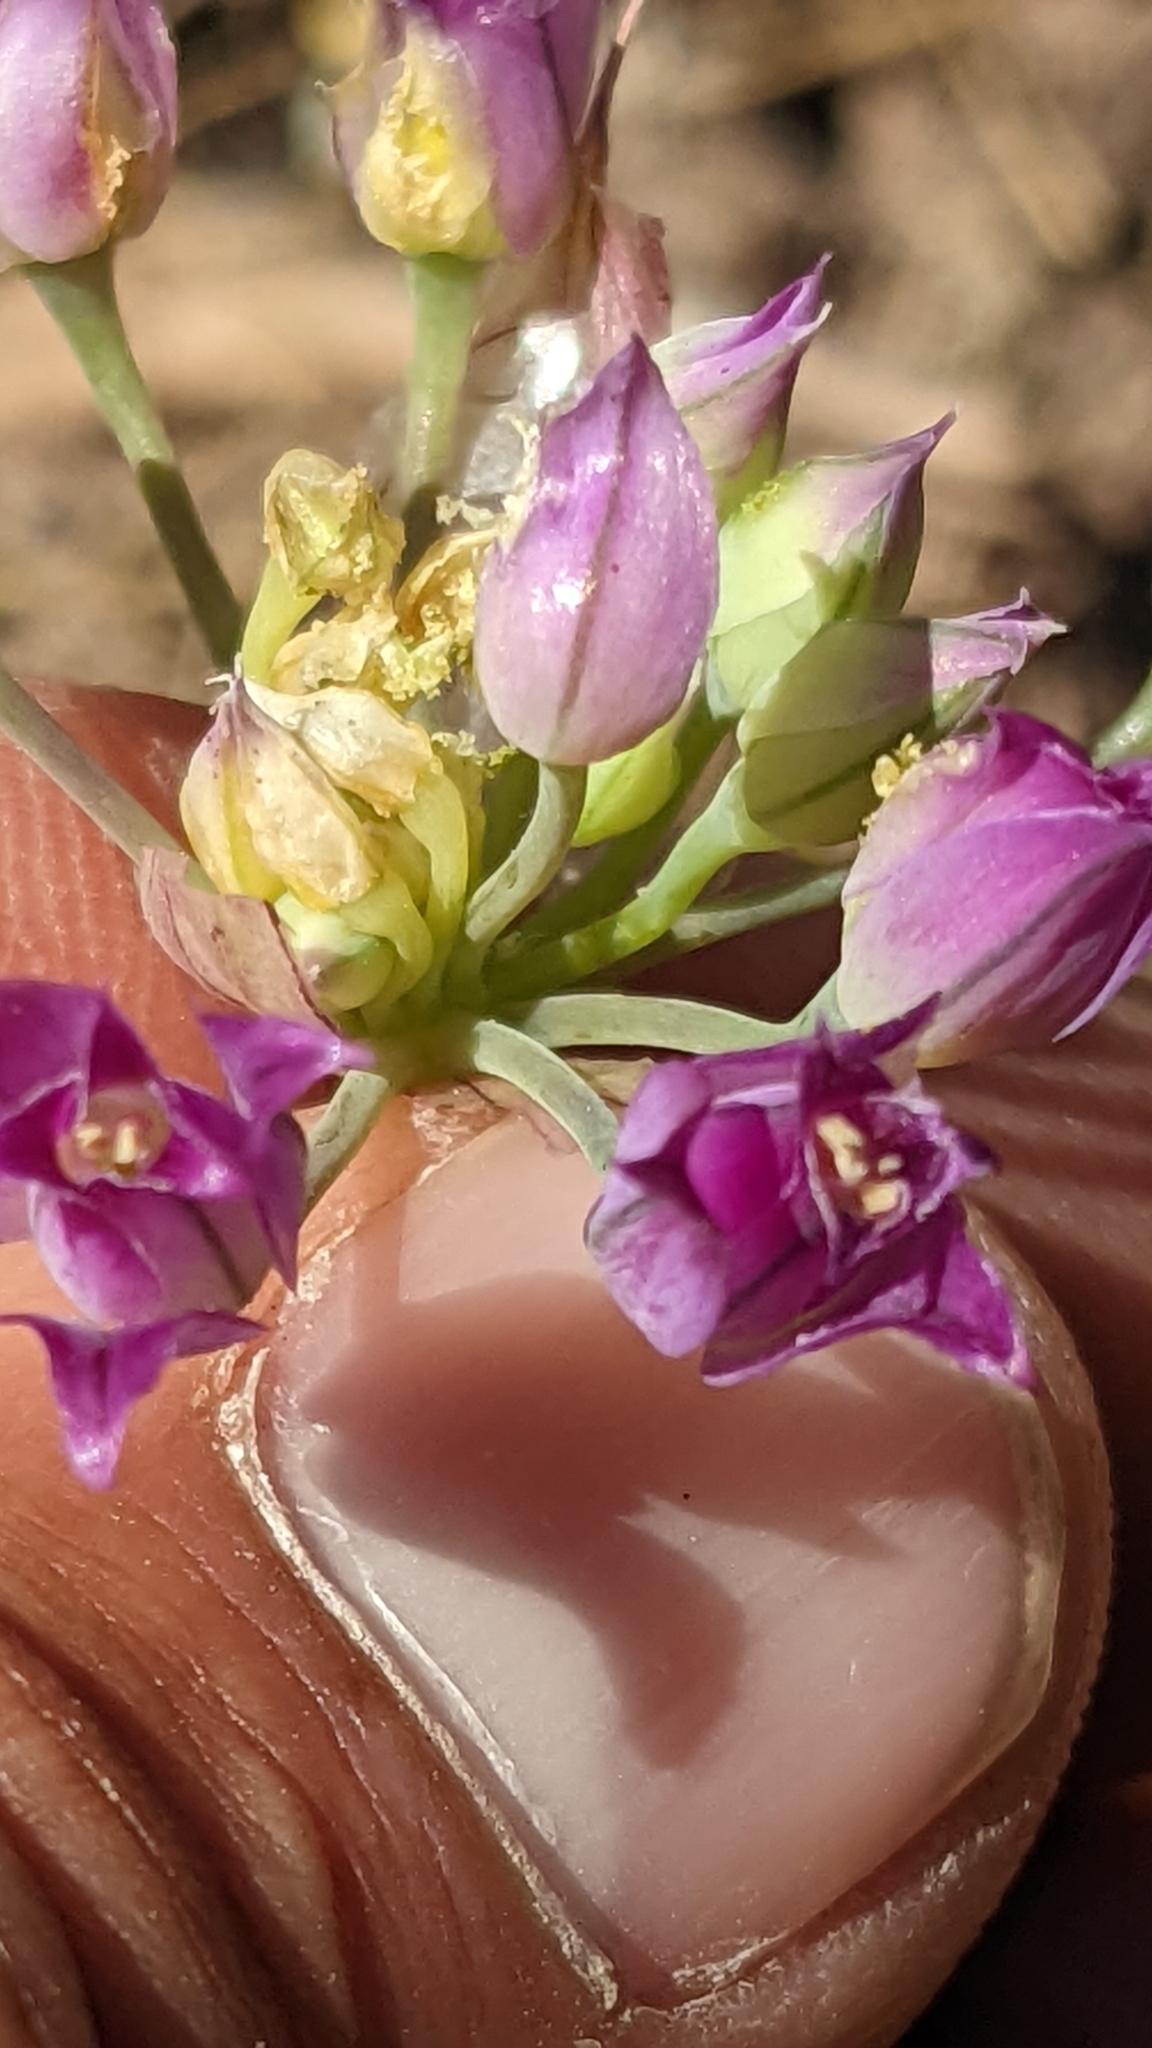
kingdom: Plantae
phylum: Tracheophyta
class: Liliopsida
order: Asparagales
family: Amaryllidaceae
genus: Allium
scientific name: Allium acuminatum
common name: Hooker's onion
